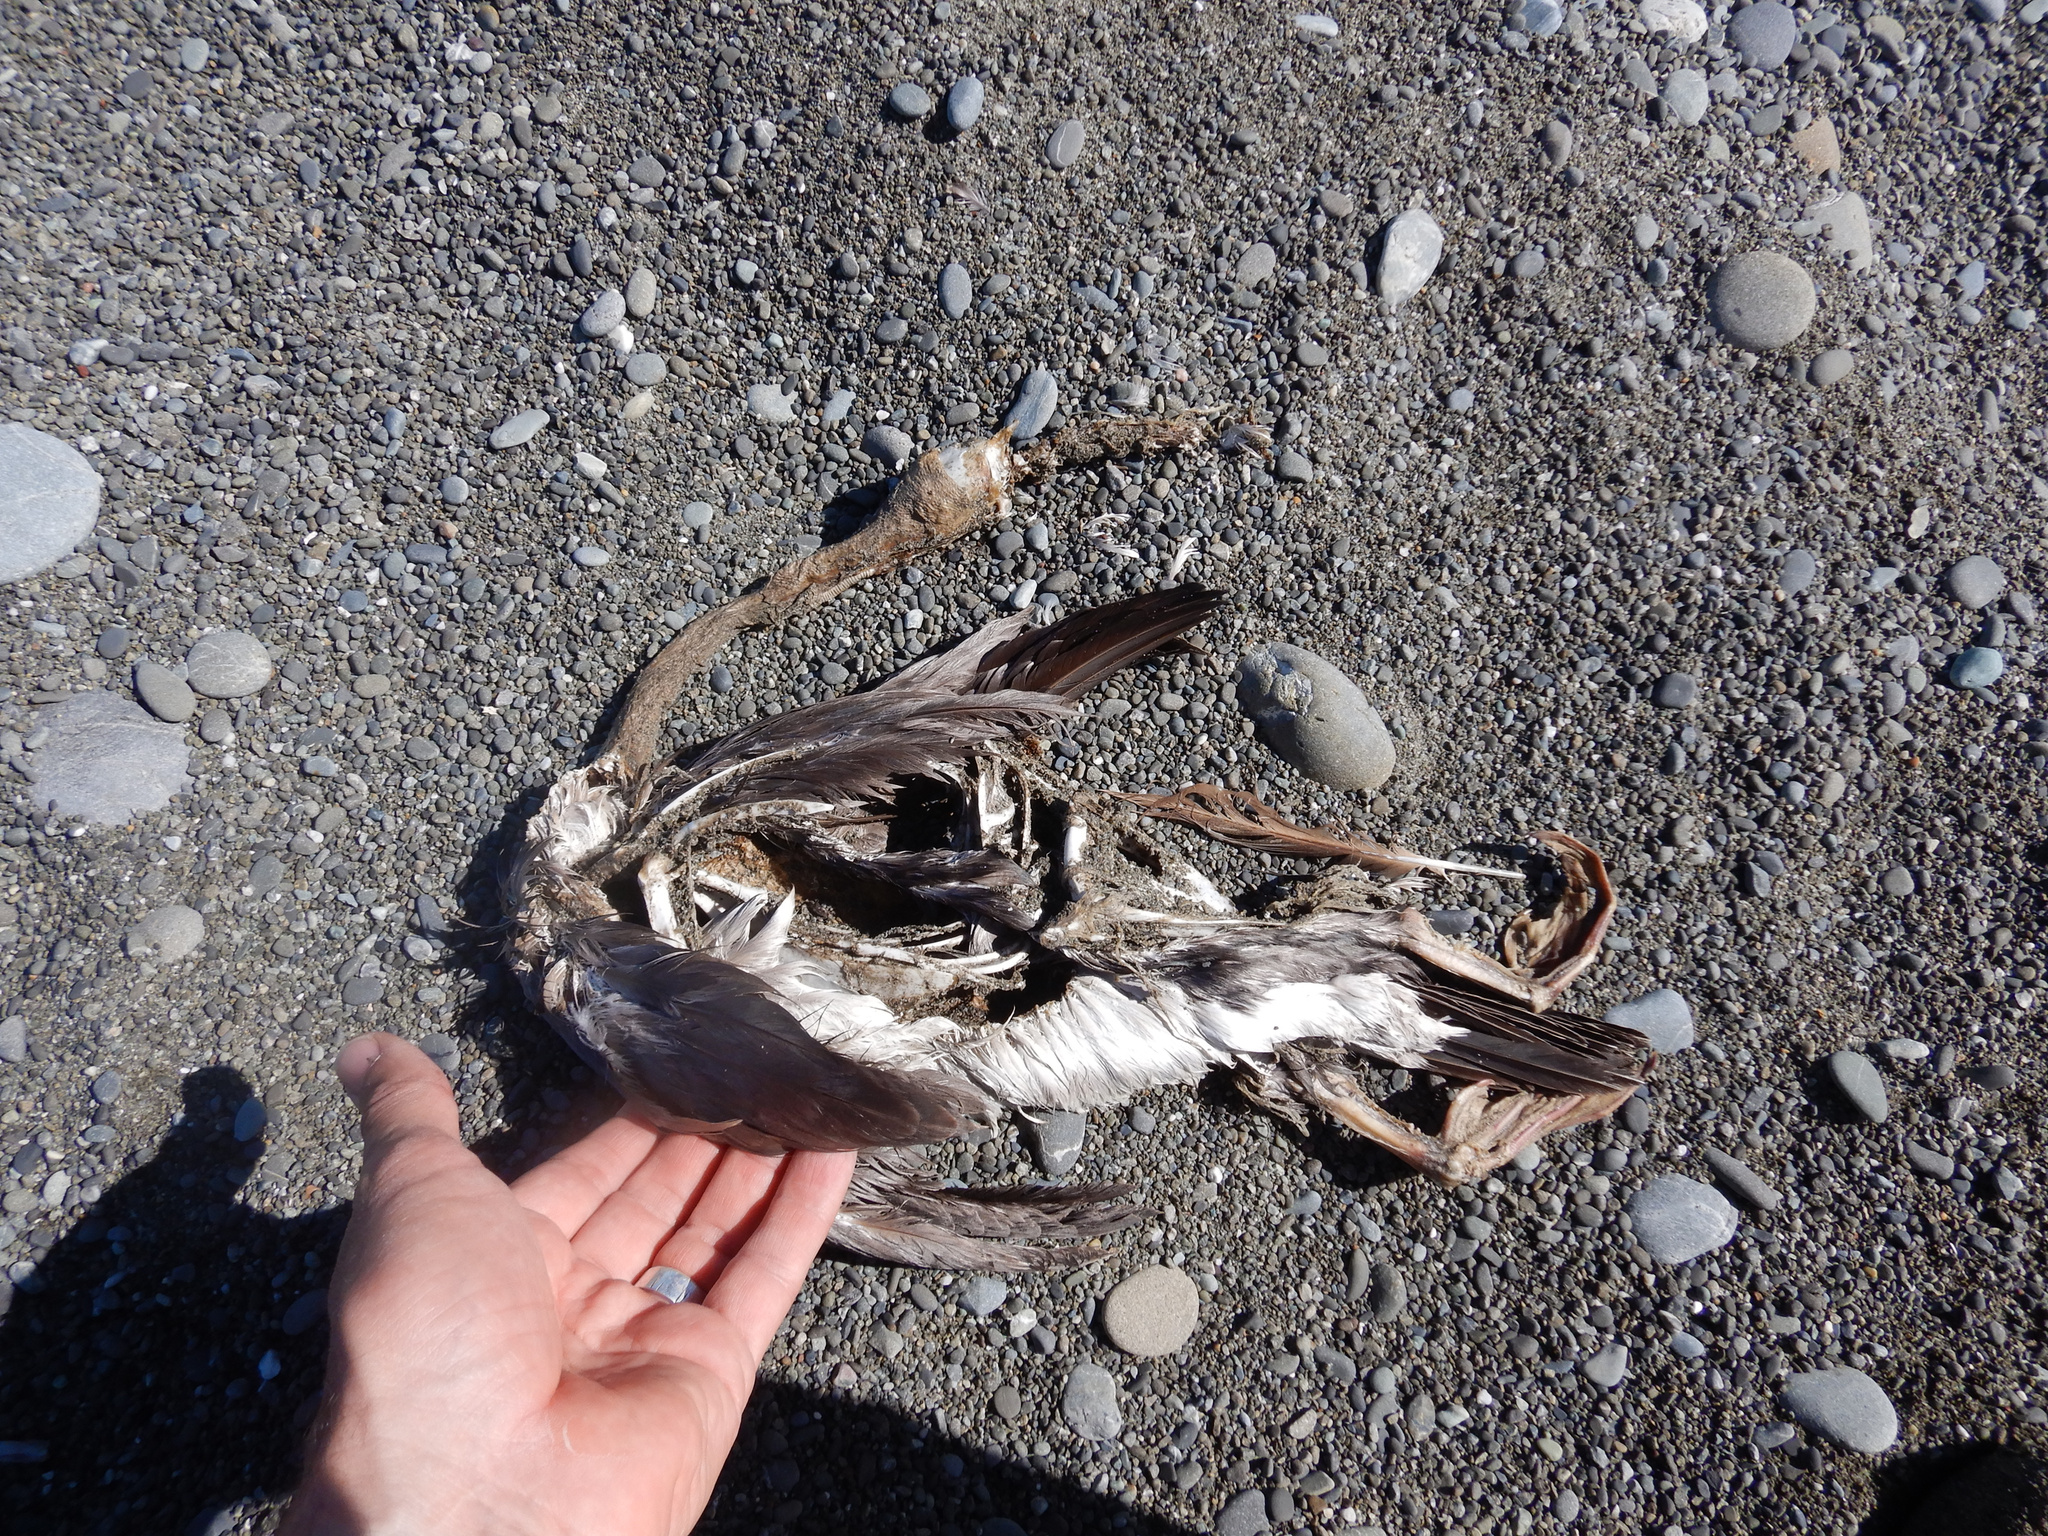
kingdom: Animalia
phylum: Chordata
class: Aves
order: Suliformes
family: Phalacrocoracidae
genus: Phalacrocorax
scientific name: Phalacrocorax punctatus
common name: Spotted shag
